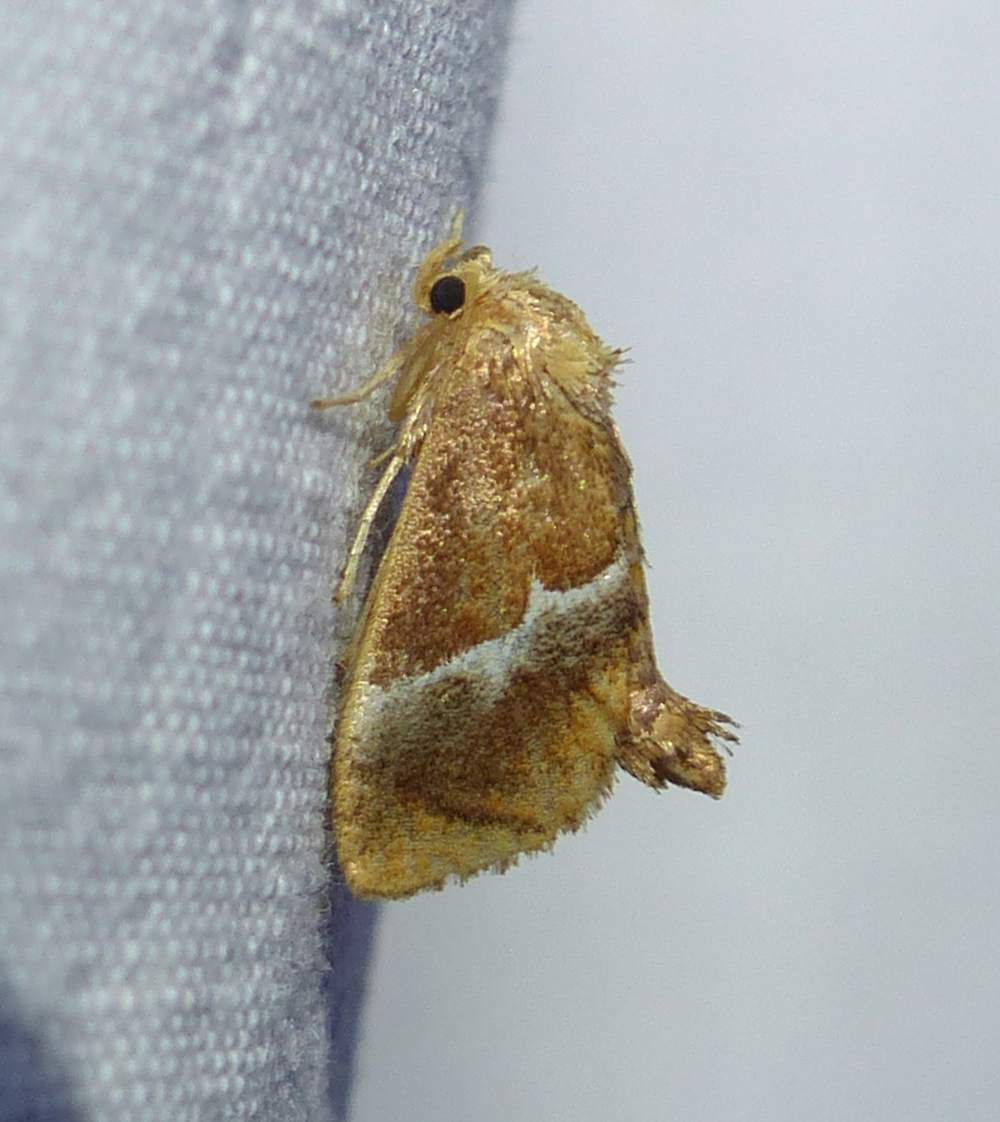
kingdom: Animalia
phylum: Arthropoda
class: Insecta
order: Lepidoptera
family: Limacodidae
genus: Lithacodes
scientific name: Lithacodes fasciola
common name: Yellow-shouldered slug moth
